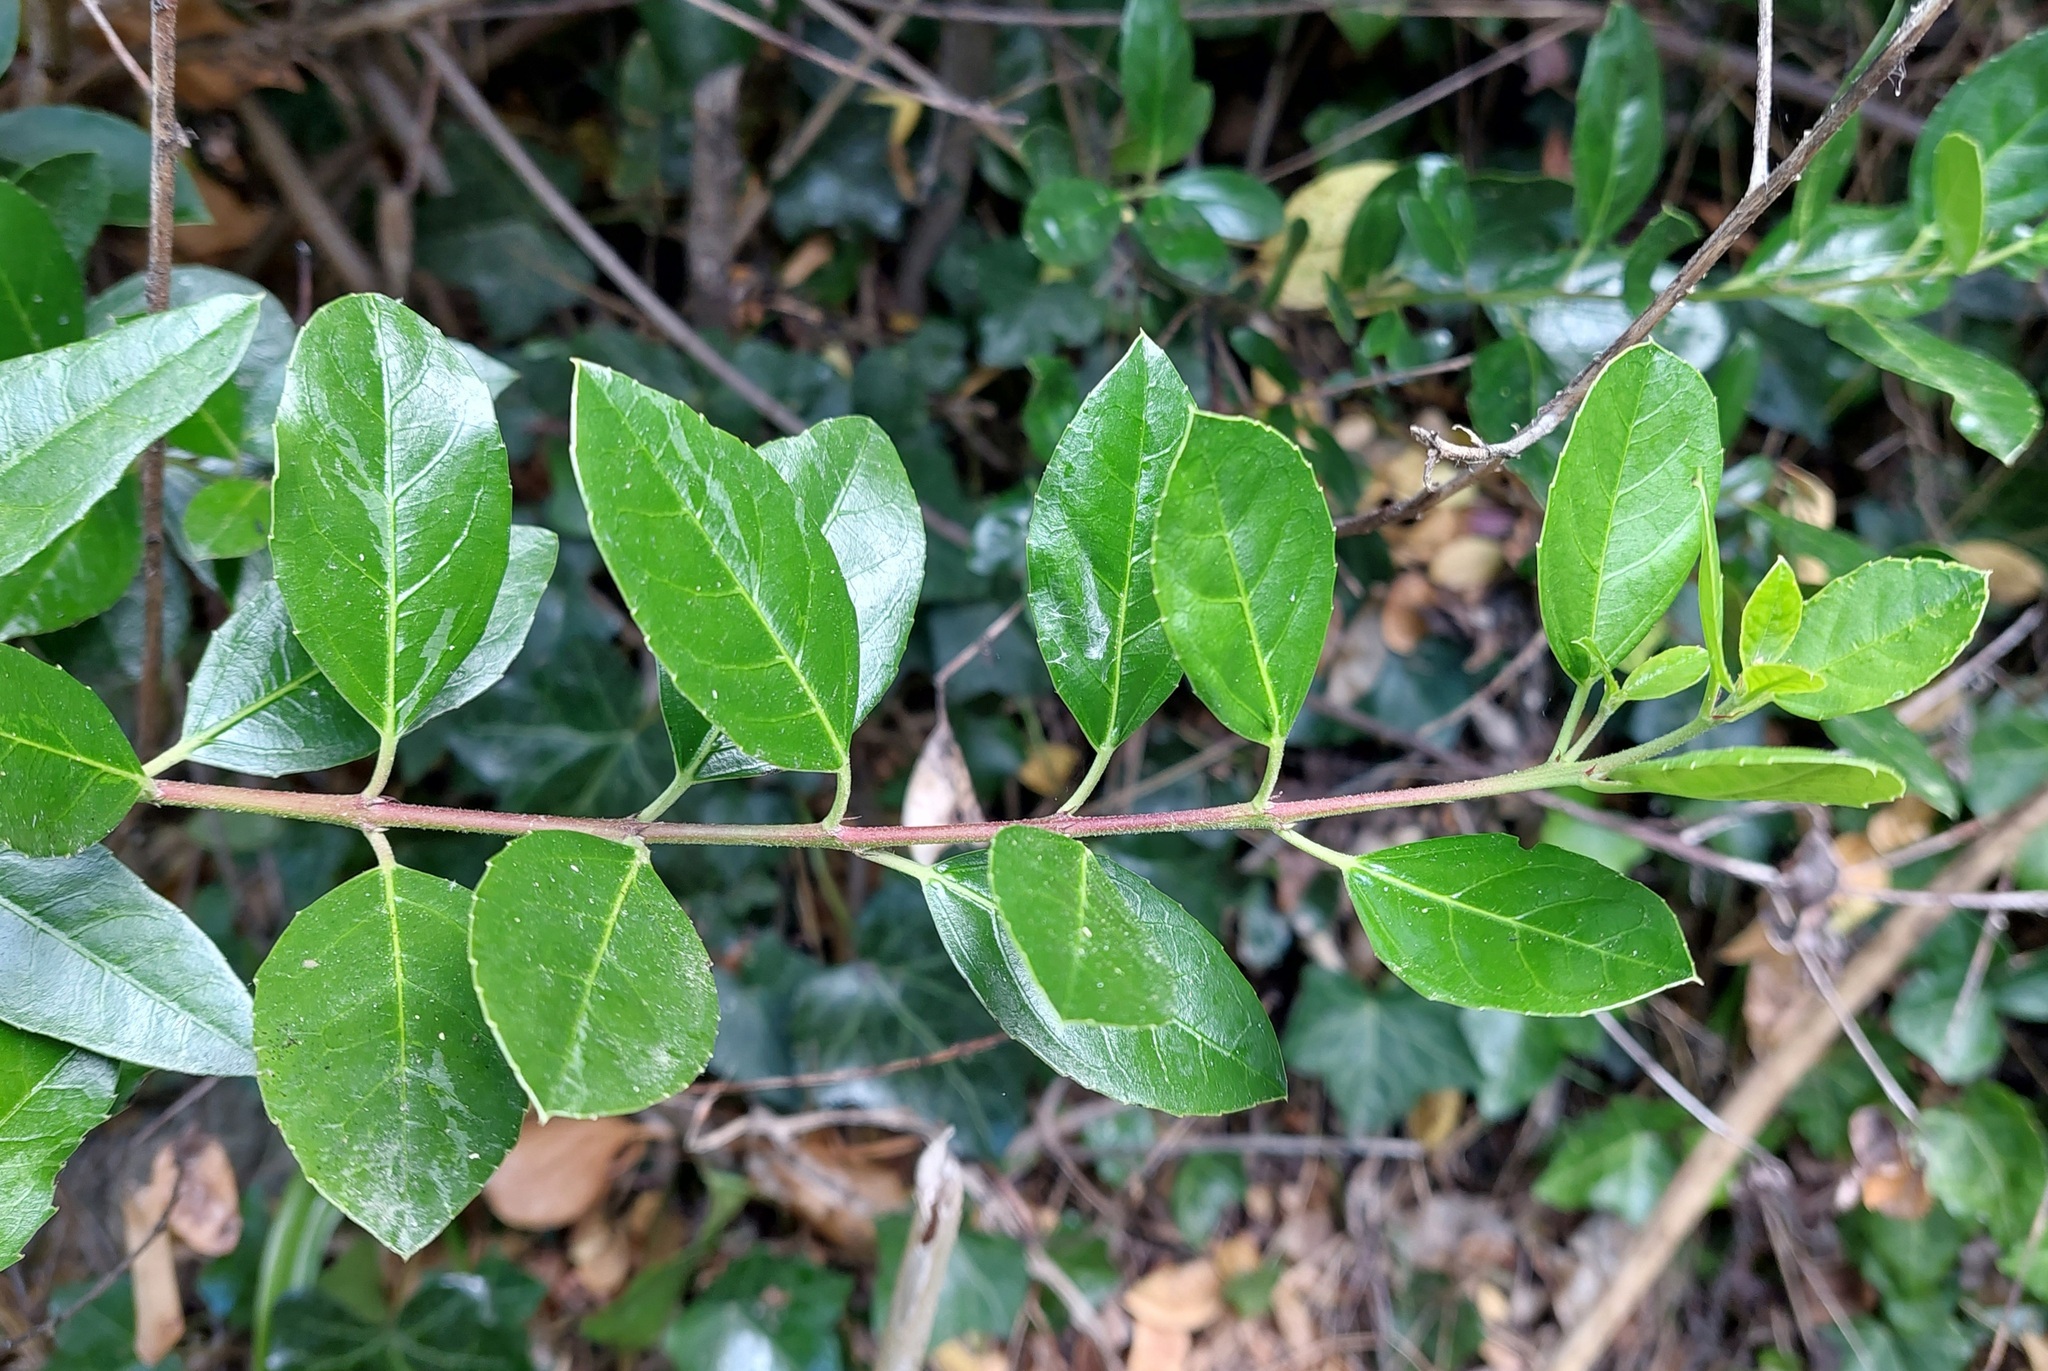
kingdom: Plantae
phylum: Tracheophyta
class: Magnoliopsida
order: Rosales
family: Rhamnaceae
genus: Rhamnus
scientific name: Rhamnus alaternus
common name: Mediterranean buckthorn
